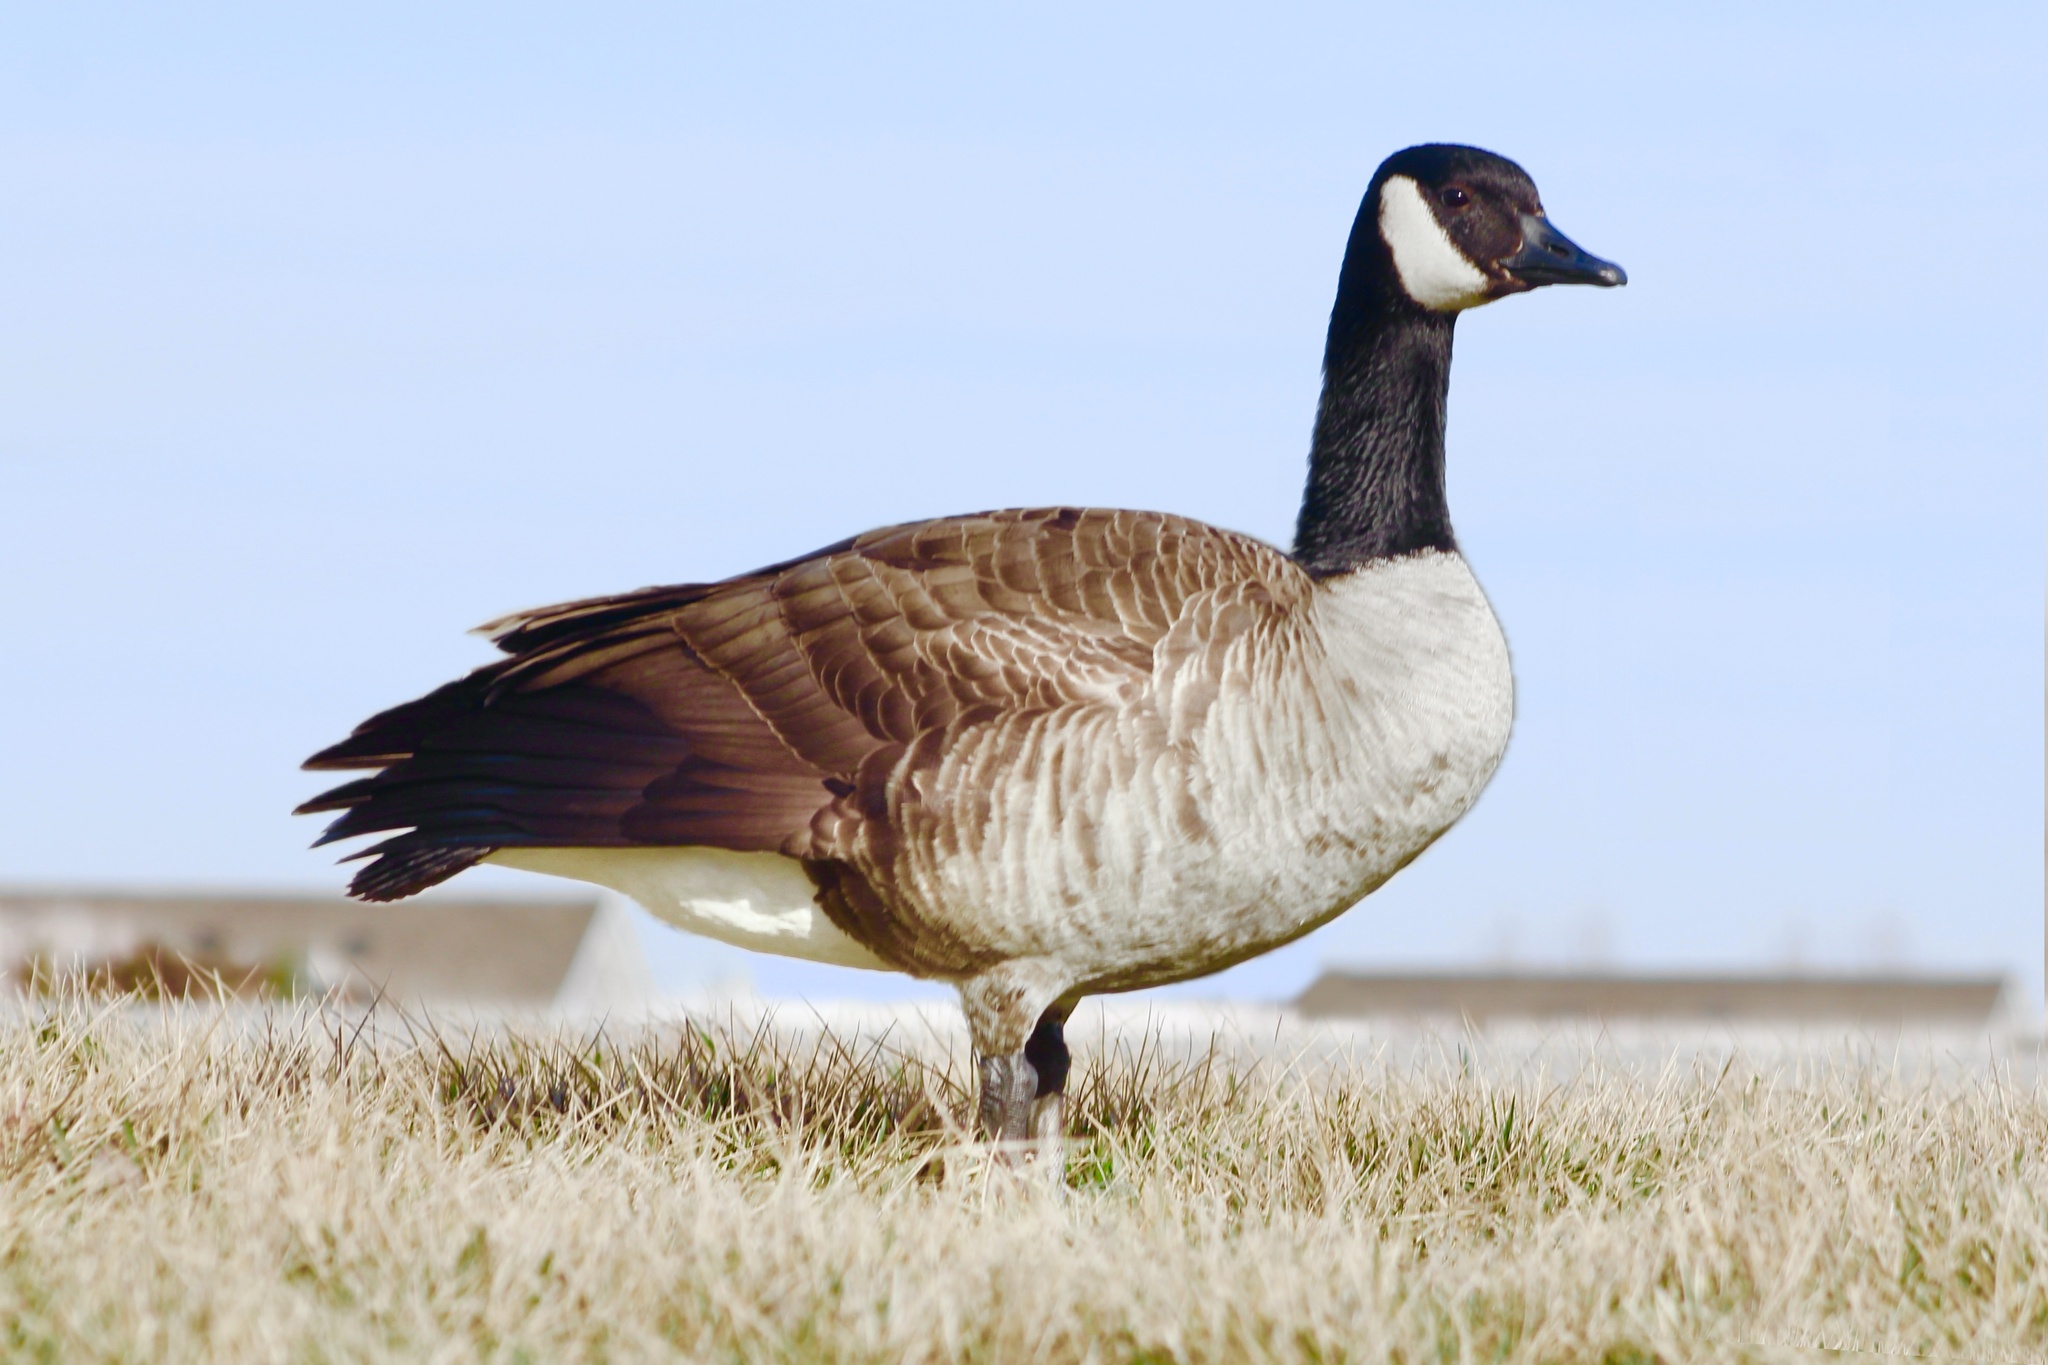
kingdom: Animalia
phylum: Chordata
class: Aves
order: Anseriformes
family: Anatidae
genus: Branta
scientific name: Branta canadensis
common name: Canada goose
